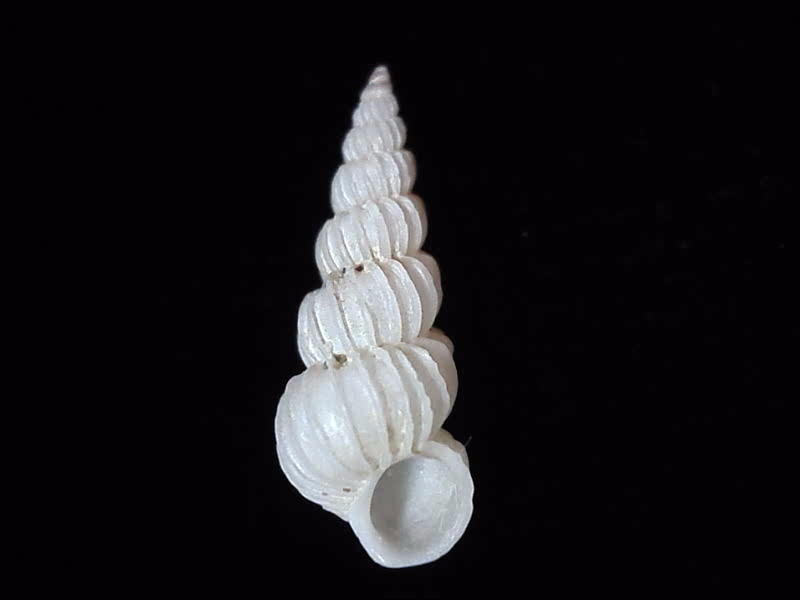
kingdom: Animalia
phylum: Mollusca
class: Gastropoda
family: Epitoniidae
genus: Epitonium
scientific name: Epitonium jukesianum
